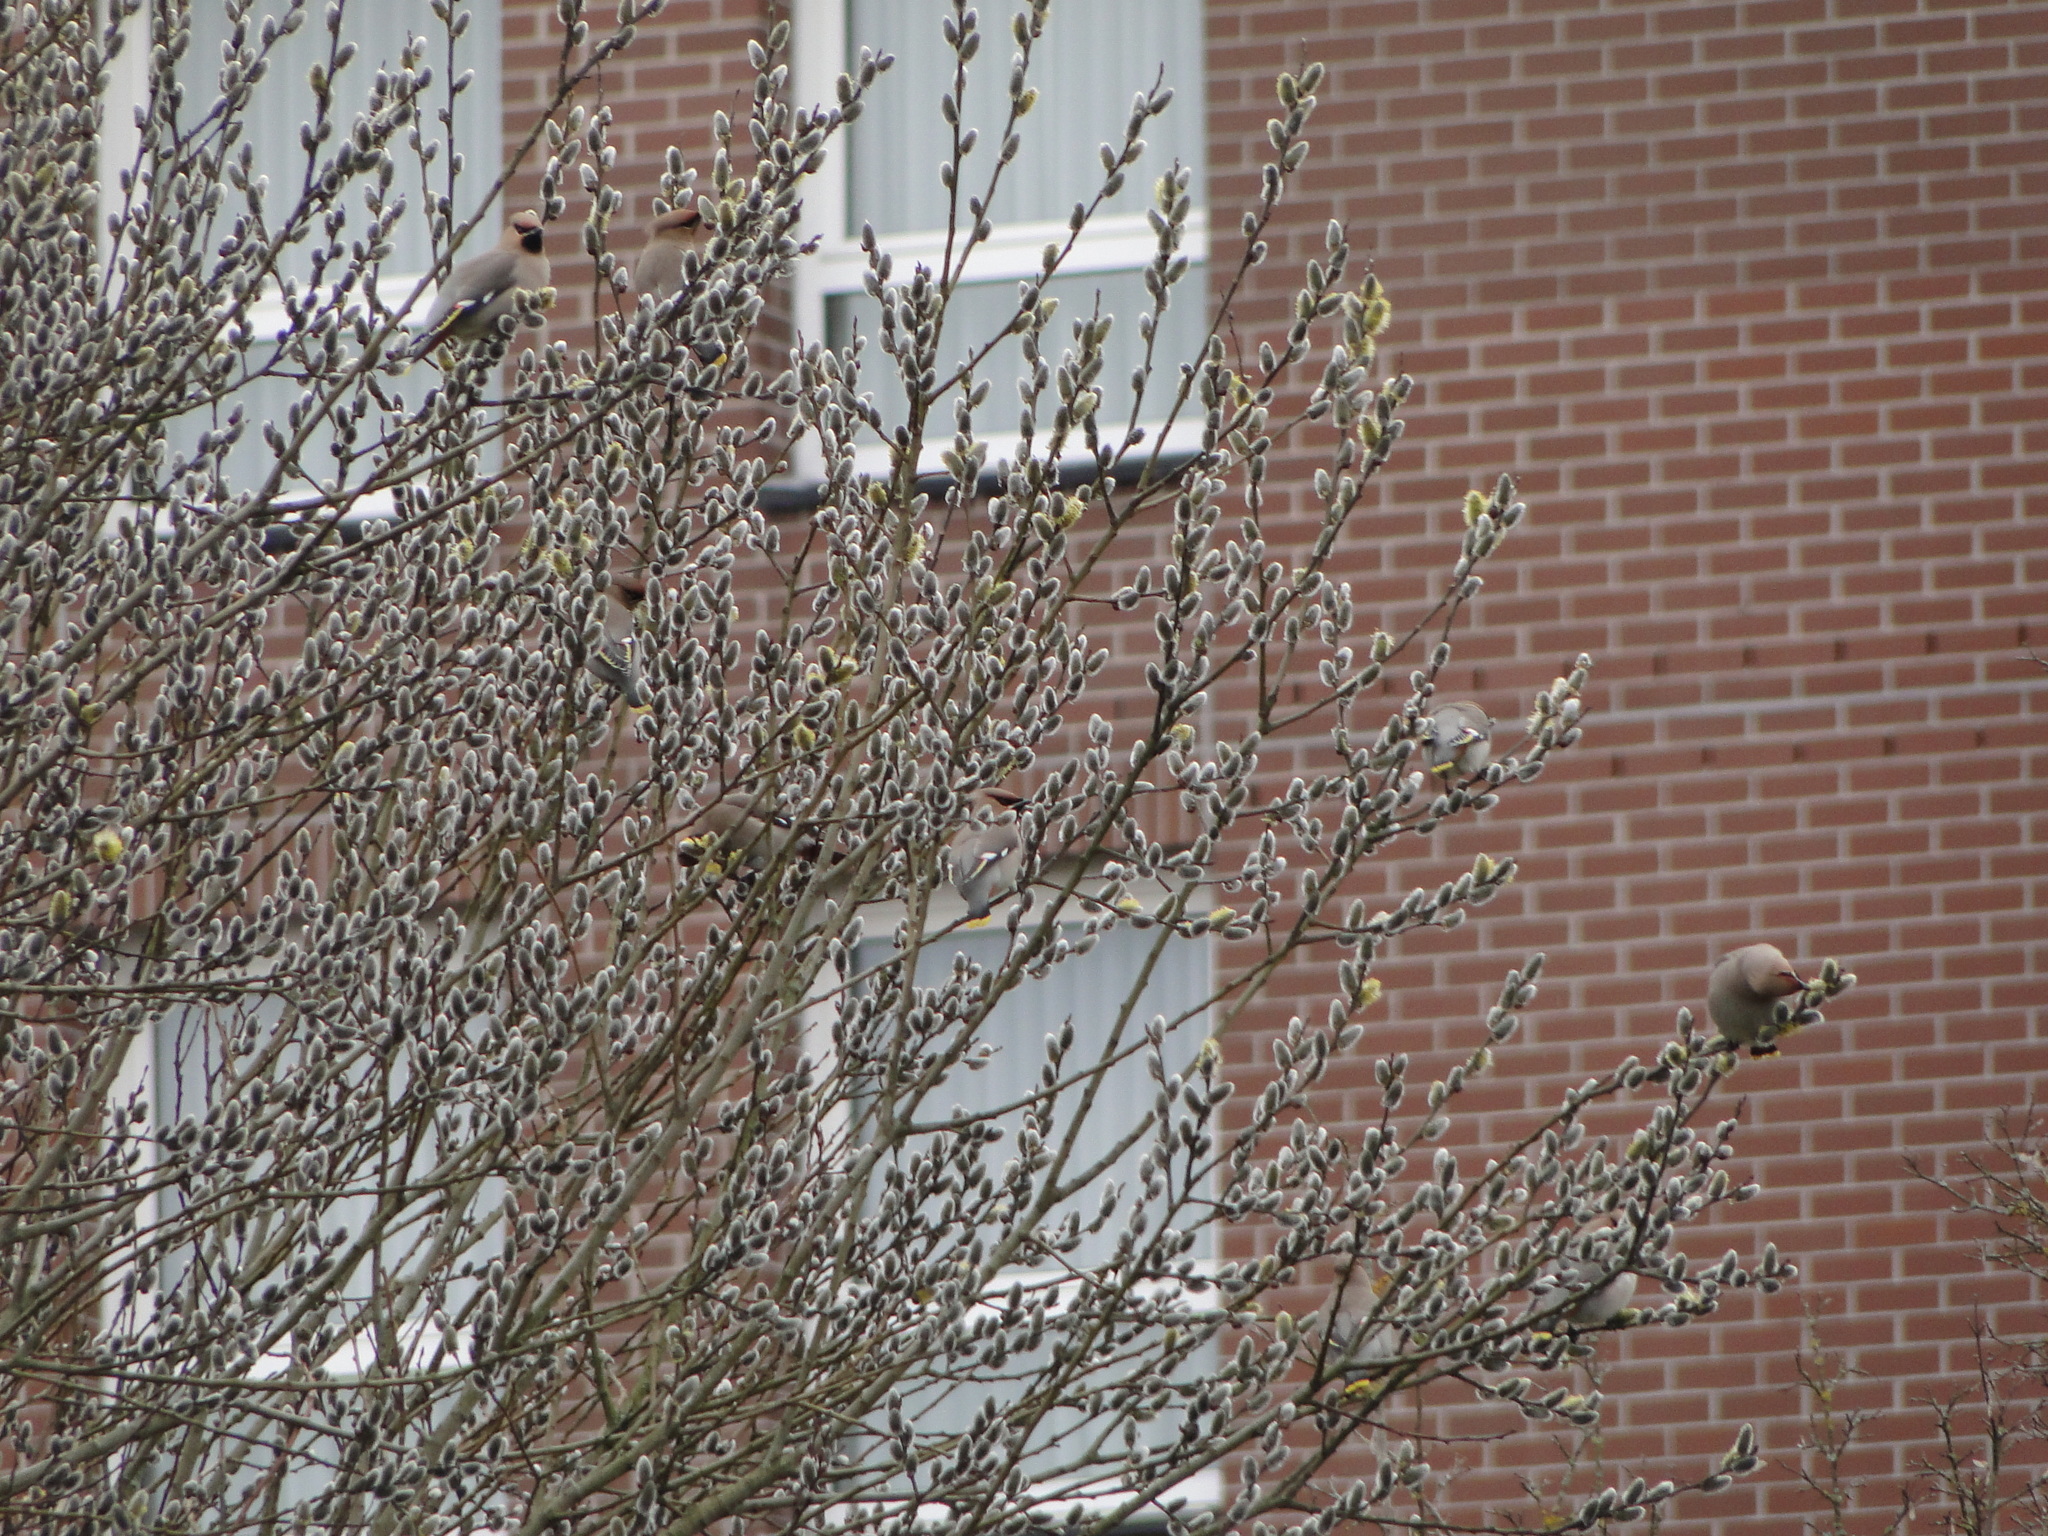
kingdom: Animalia
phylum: Chordata
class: Aves
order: Passeriformes
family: Bombycillidae
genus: Bombycilla
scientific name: Bombycilla garrulus
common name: Bohemian waxwing
